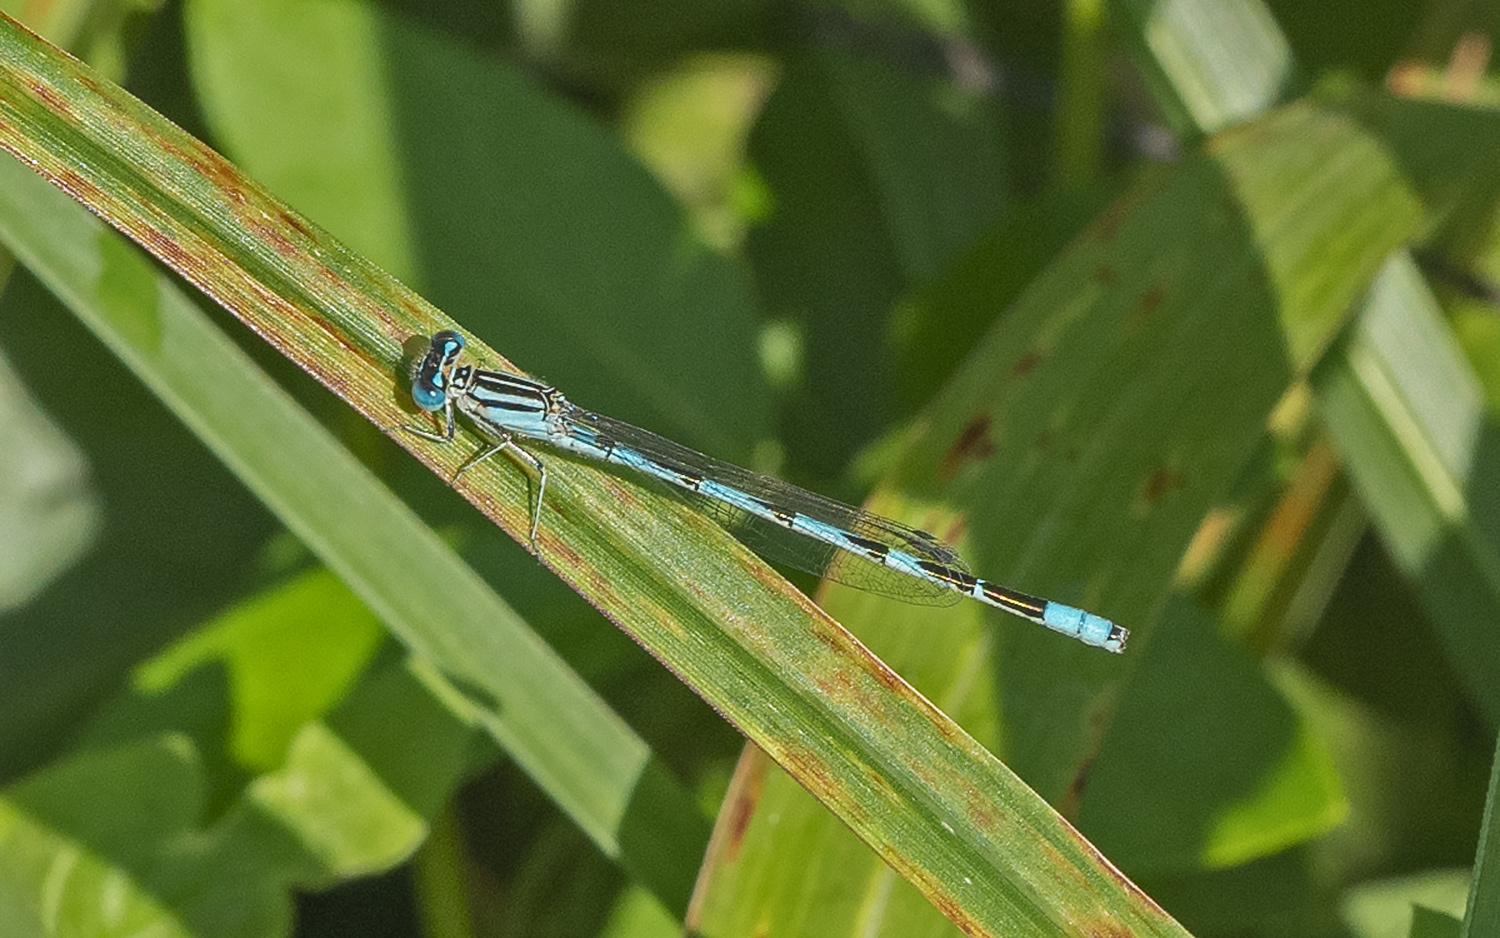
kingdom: Animalia
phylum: Arthropoda
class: Insecta
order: Odonata
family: Coenagrionidae
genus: Enallagma
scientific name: Enallagma durum
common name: Big bluet
